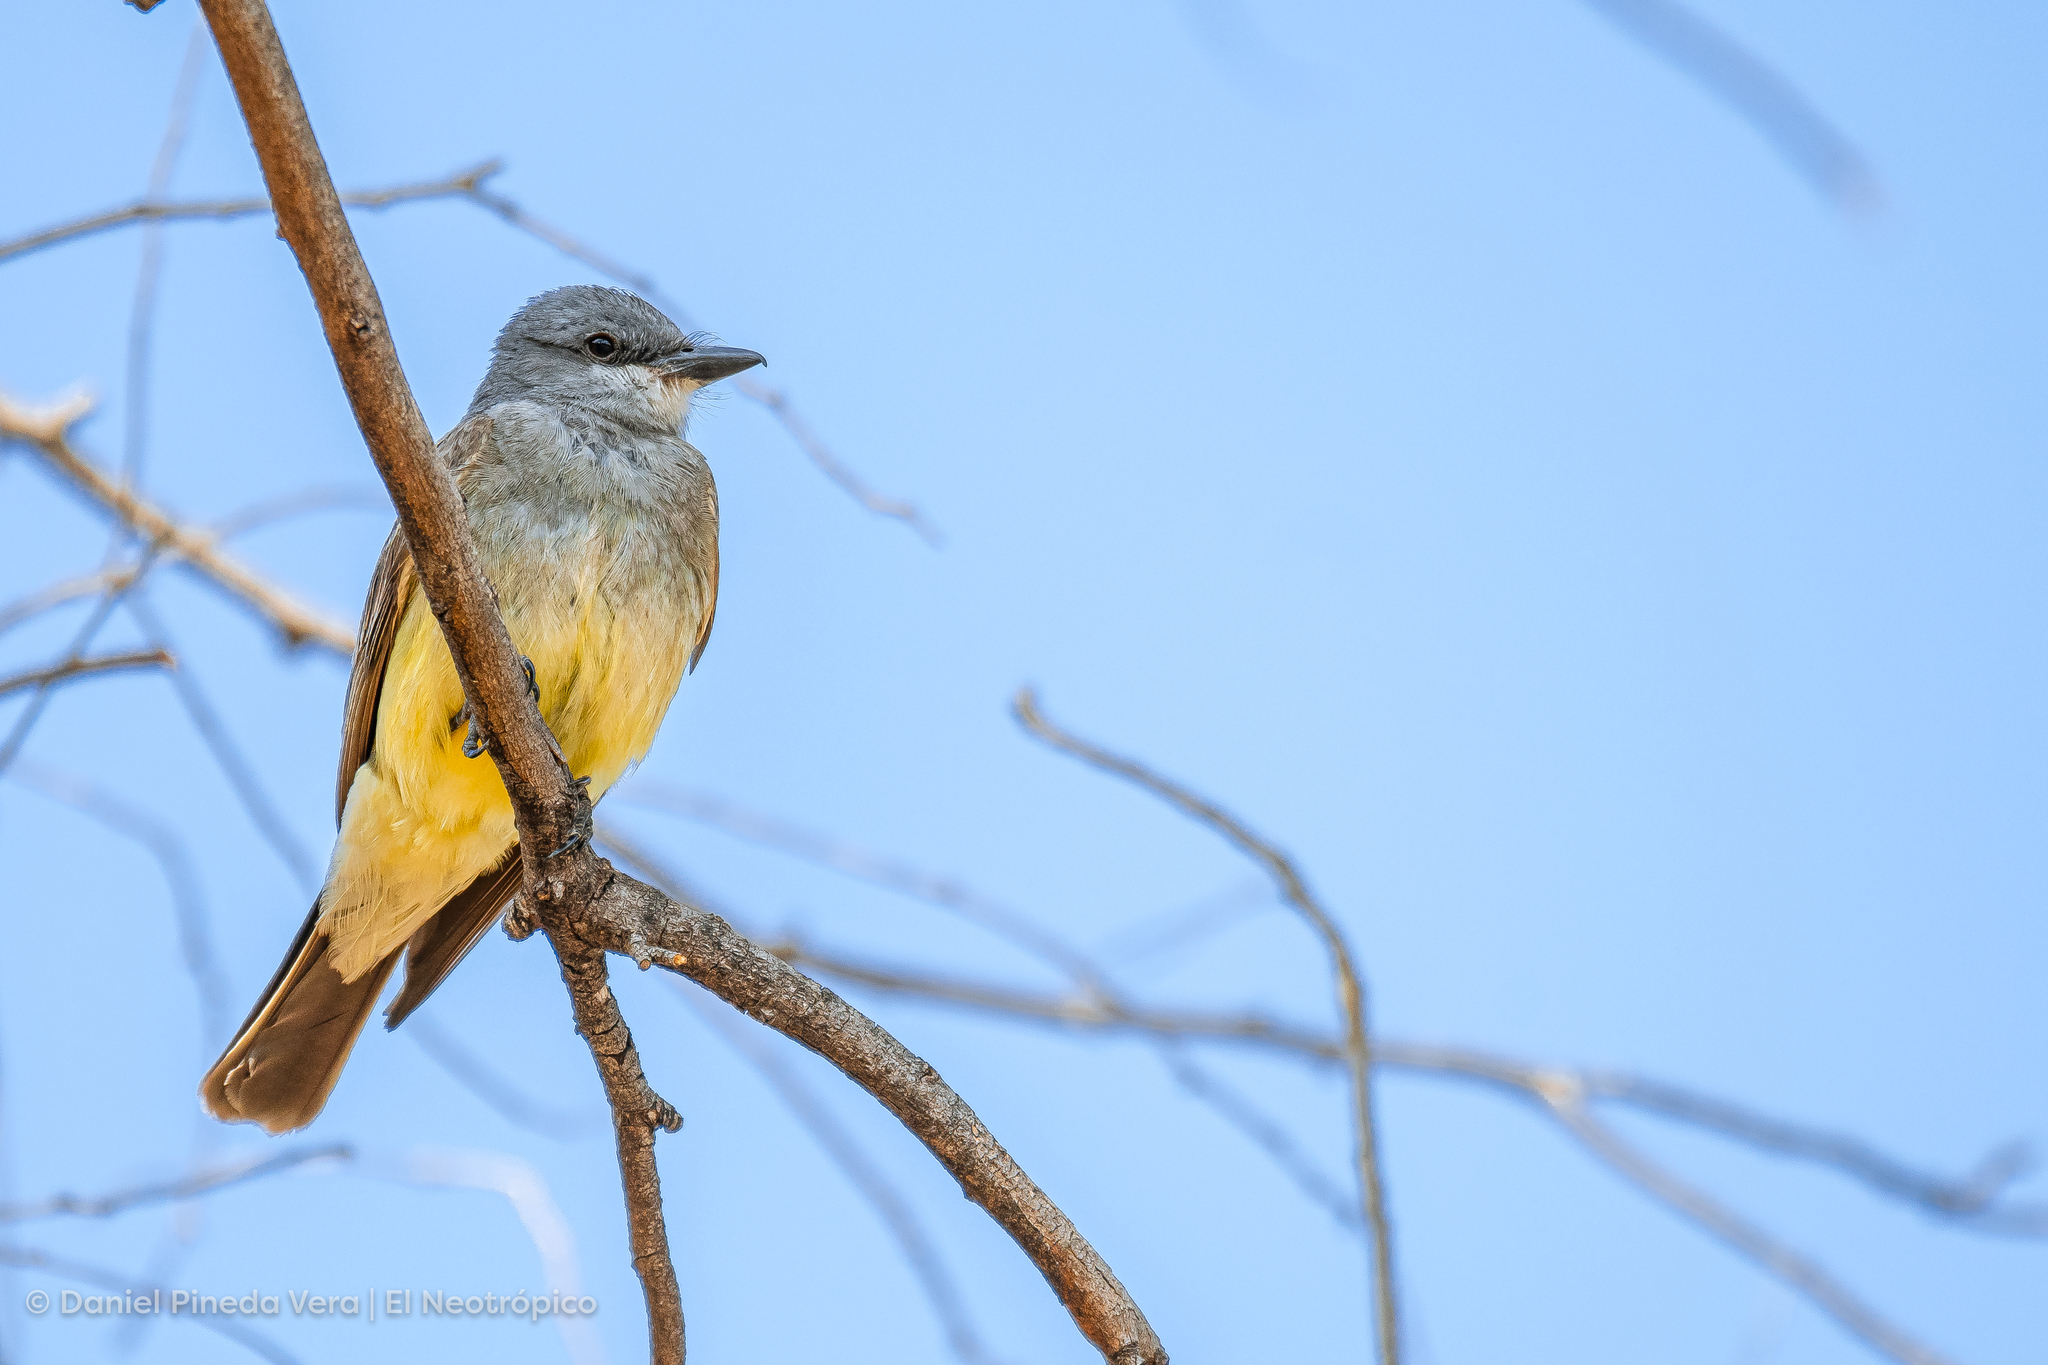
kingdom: Animalia
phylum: Chordata
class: Aves
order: Passeriformes
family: Tyrannidae
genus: Tyrannus
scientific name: Tyrannus vociferans
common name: Cassin's kingbird
